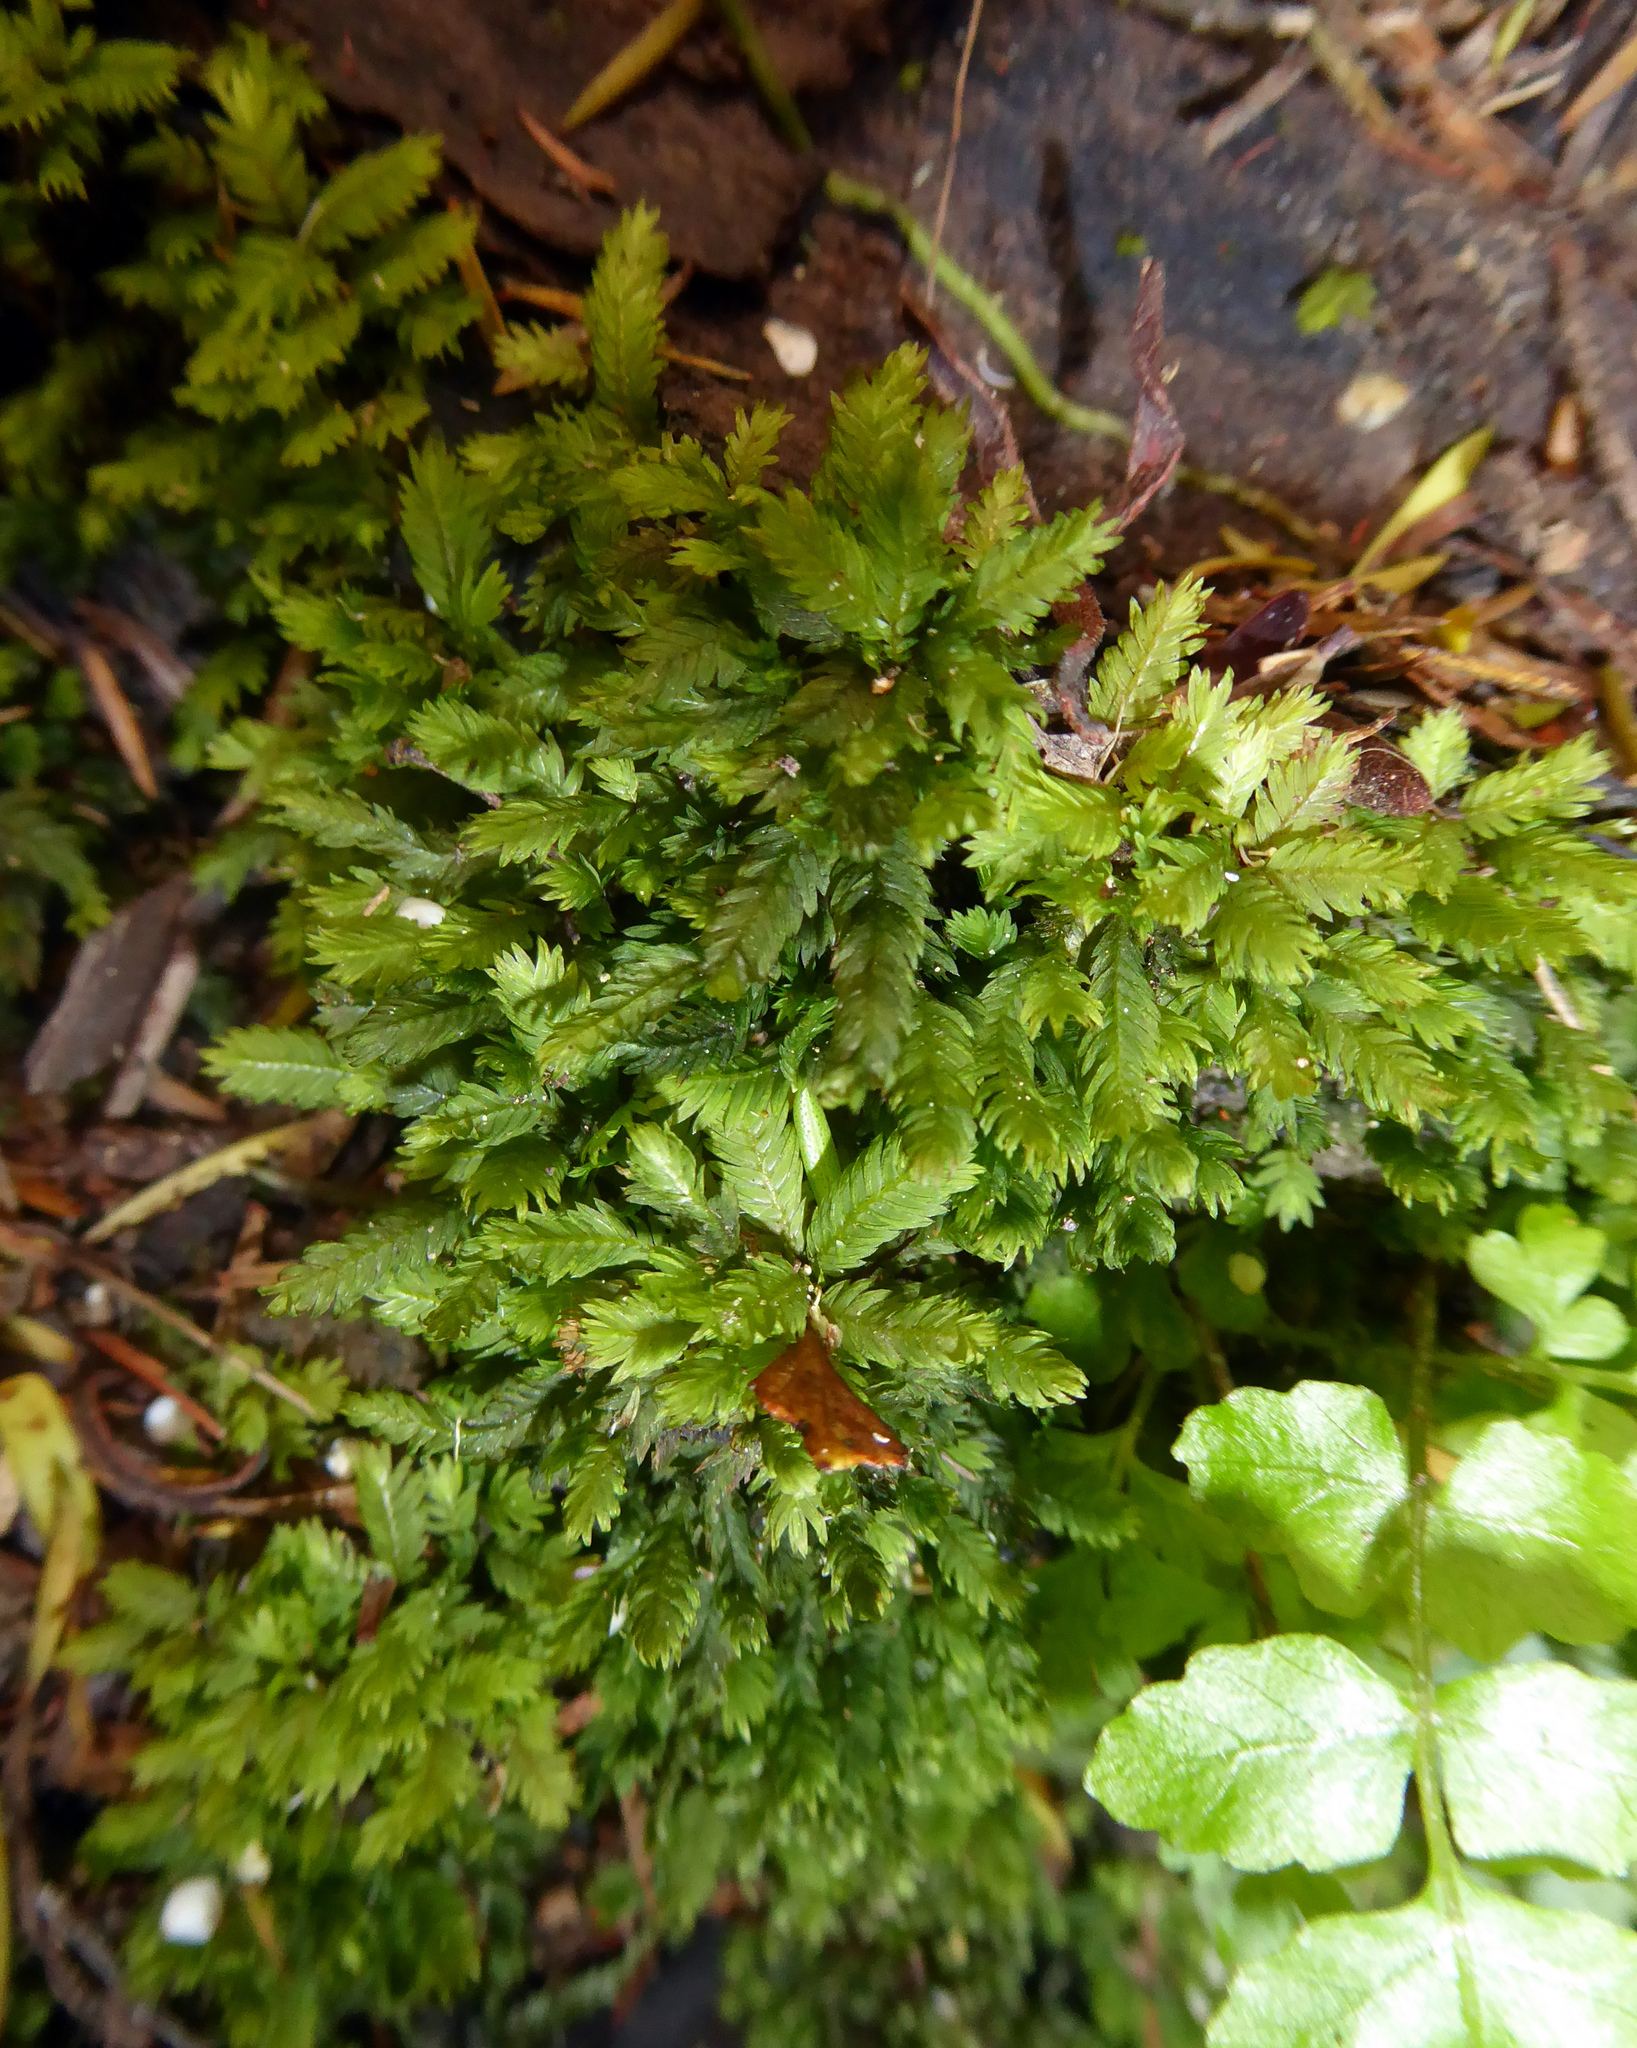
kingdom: Plantae
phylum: Bryophyta
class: Bryopsida
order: Dicranales
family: Fissidentaceae
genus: Fissidens
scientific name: Fissidens taxifolius
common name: Yew-leaved pocket moss
